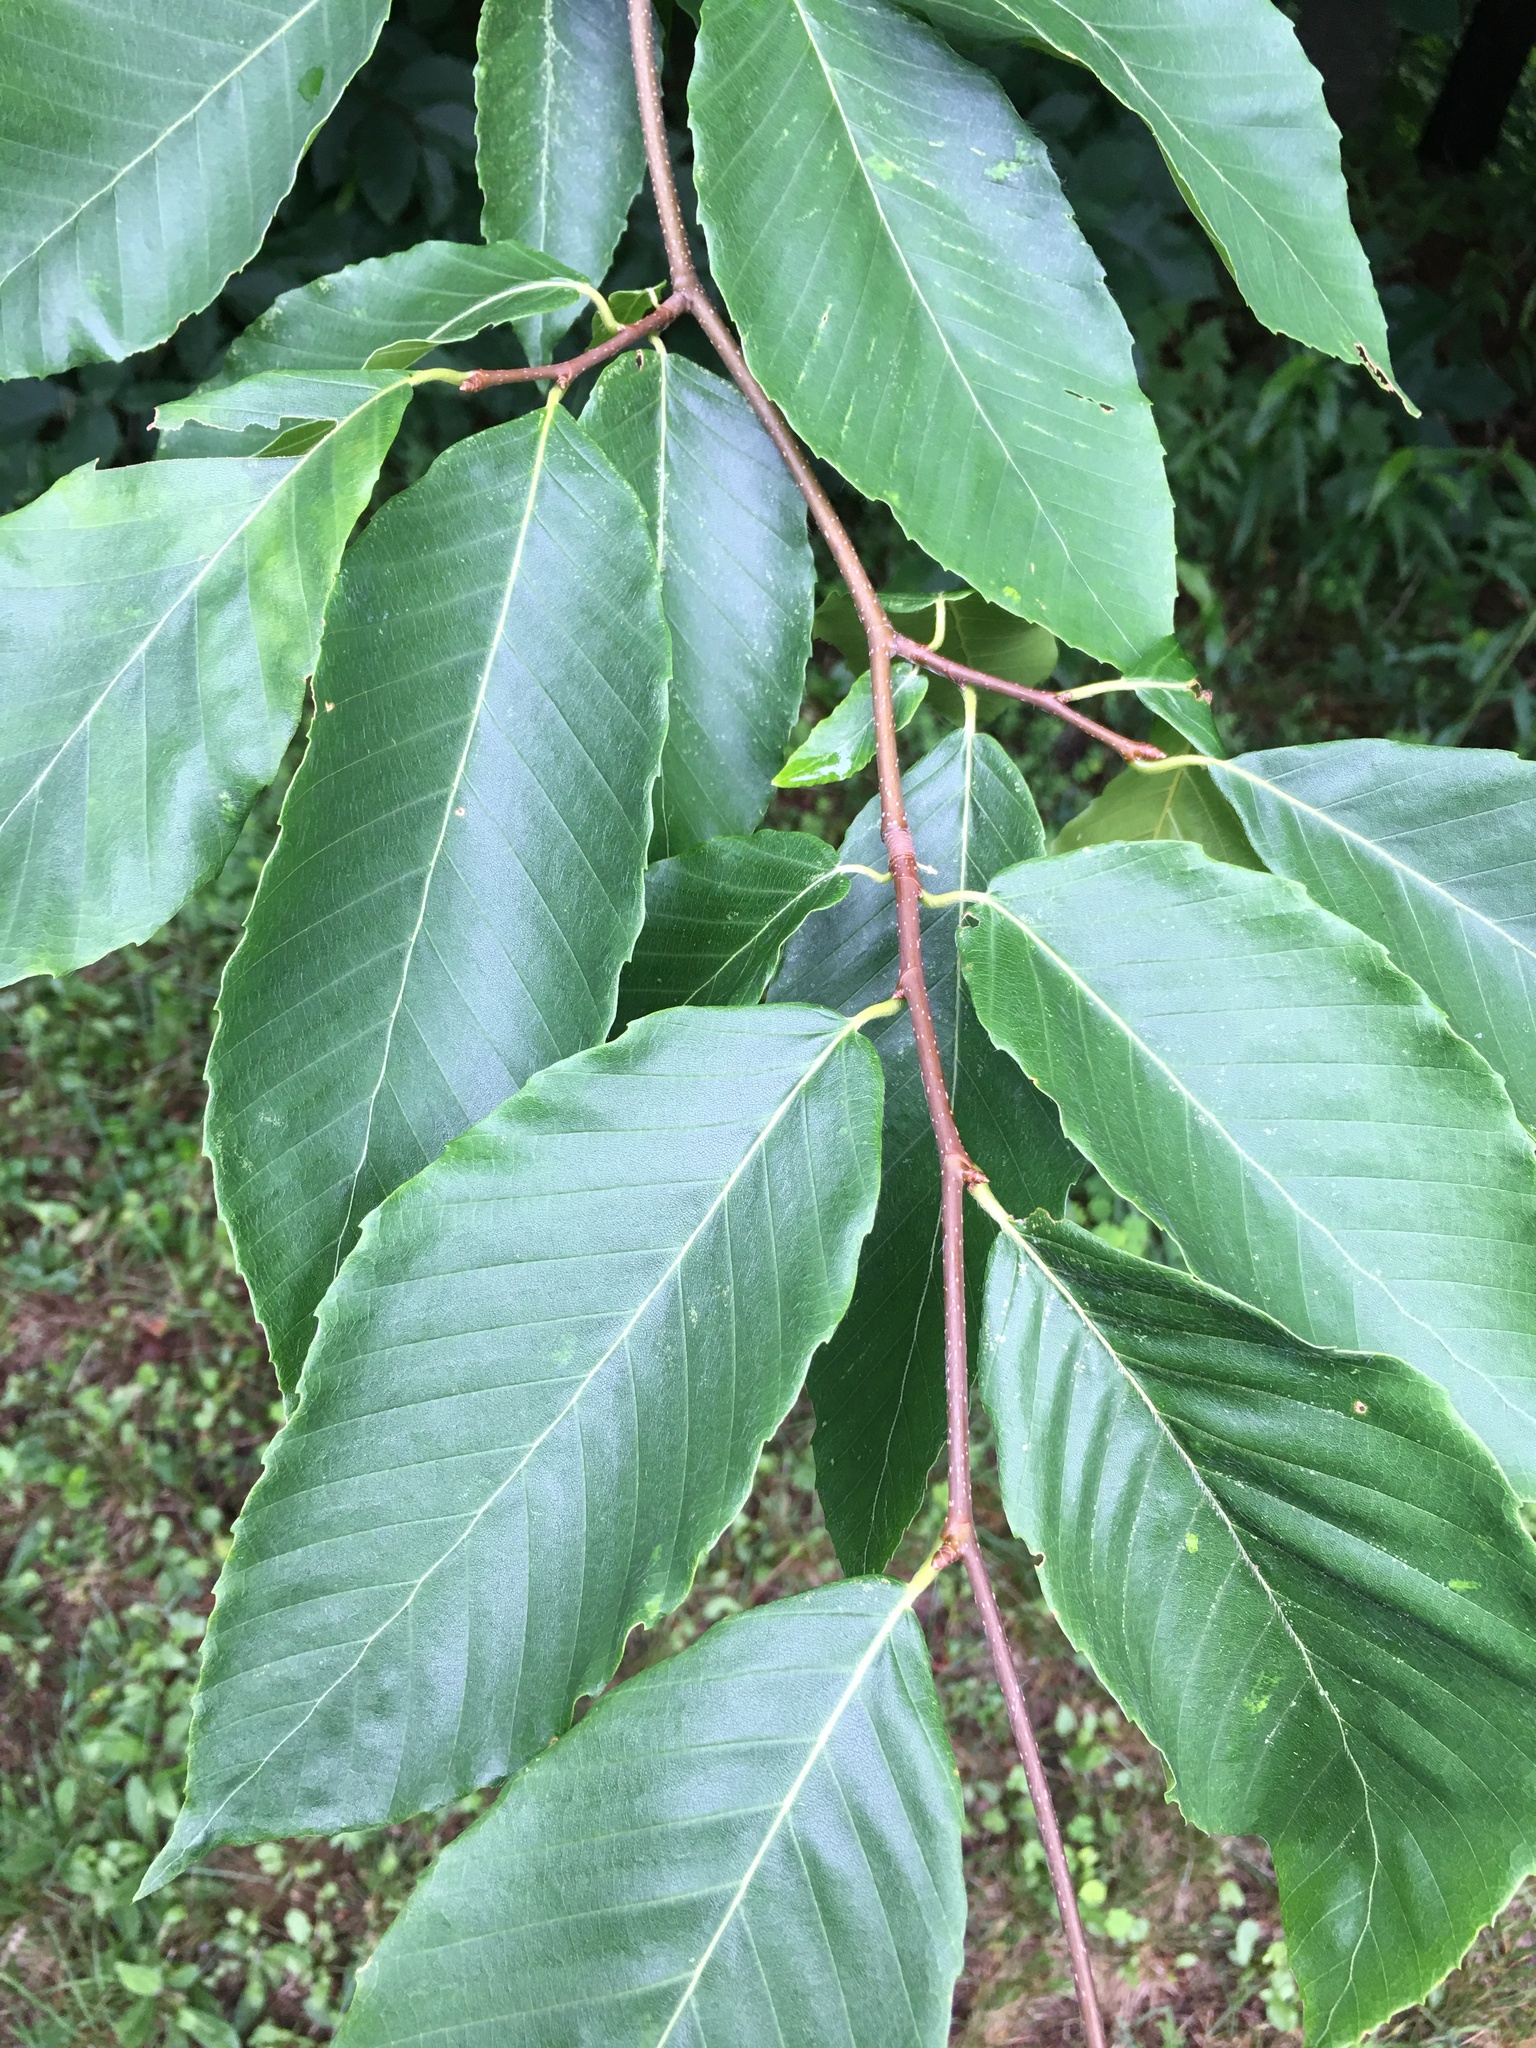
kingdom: Plantae
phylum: Tracheophyta
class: Magnoliopsida
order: Fagales
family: Fagaceae
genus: Fagus
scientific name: Fagus grandifolia
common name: American beech
